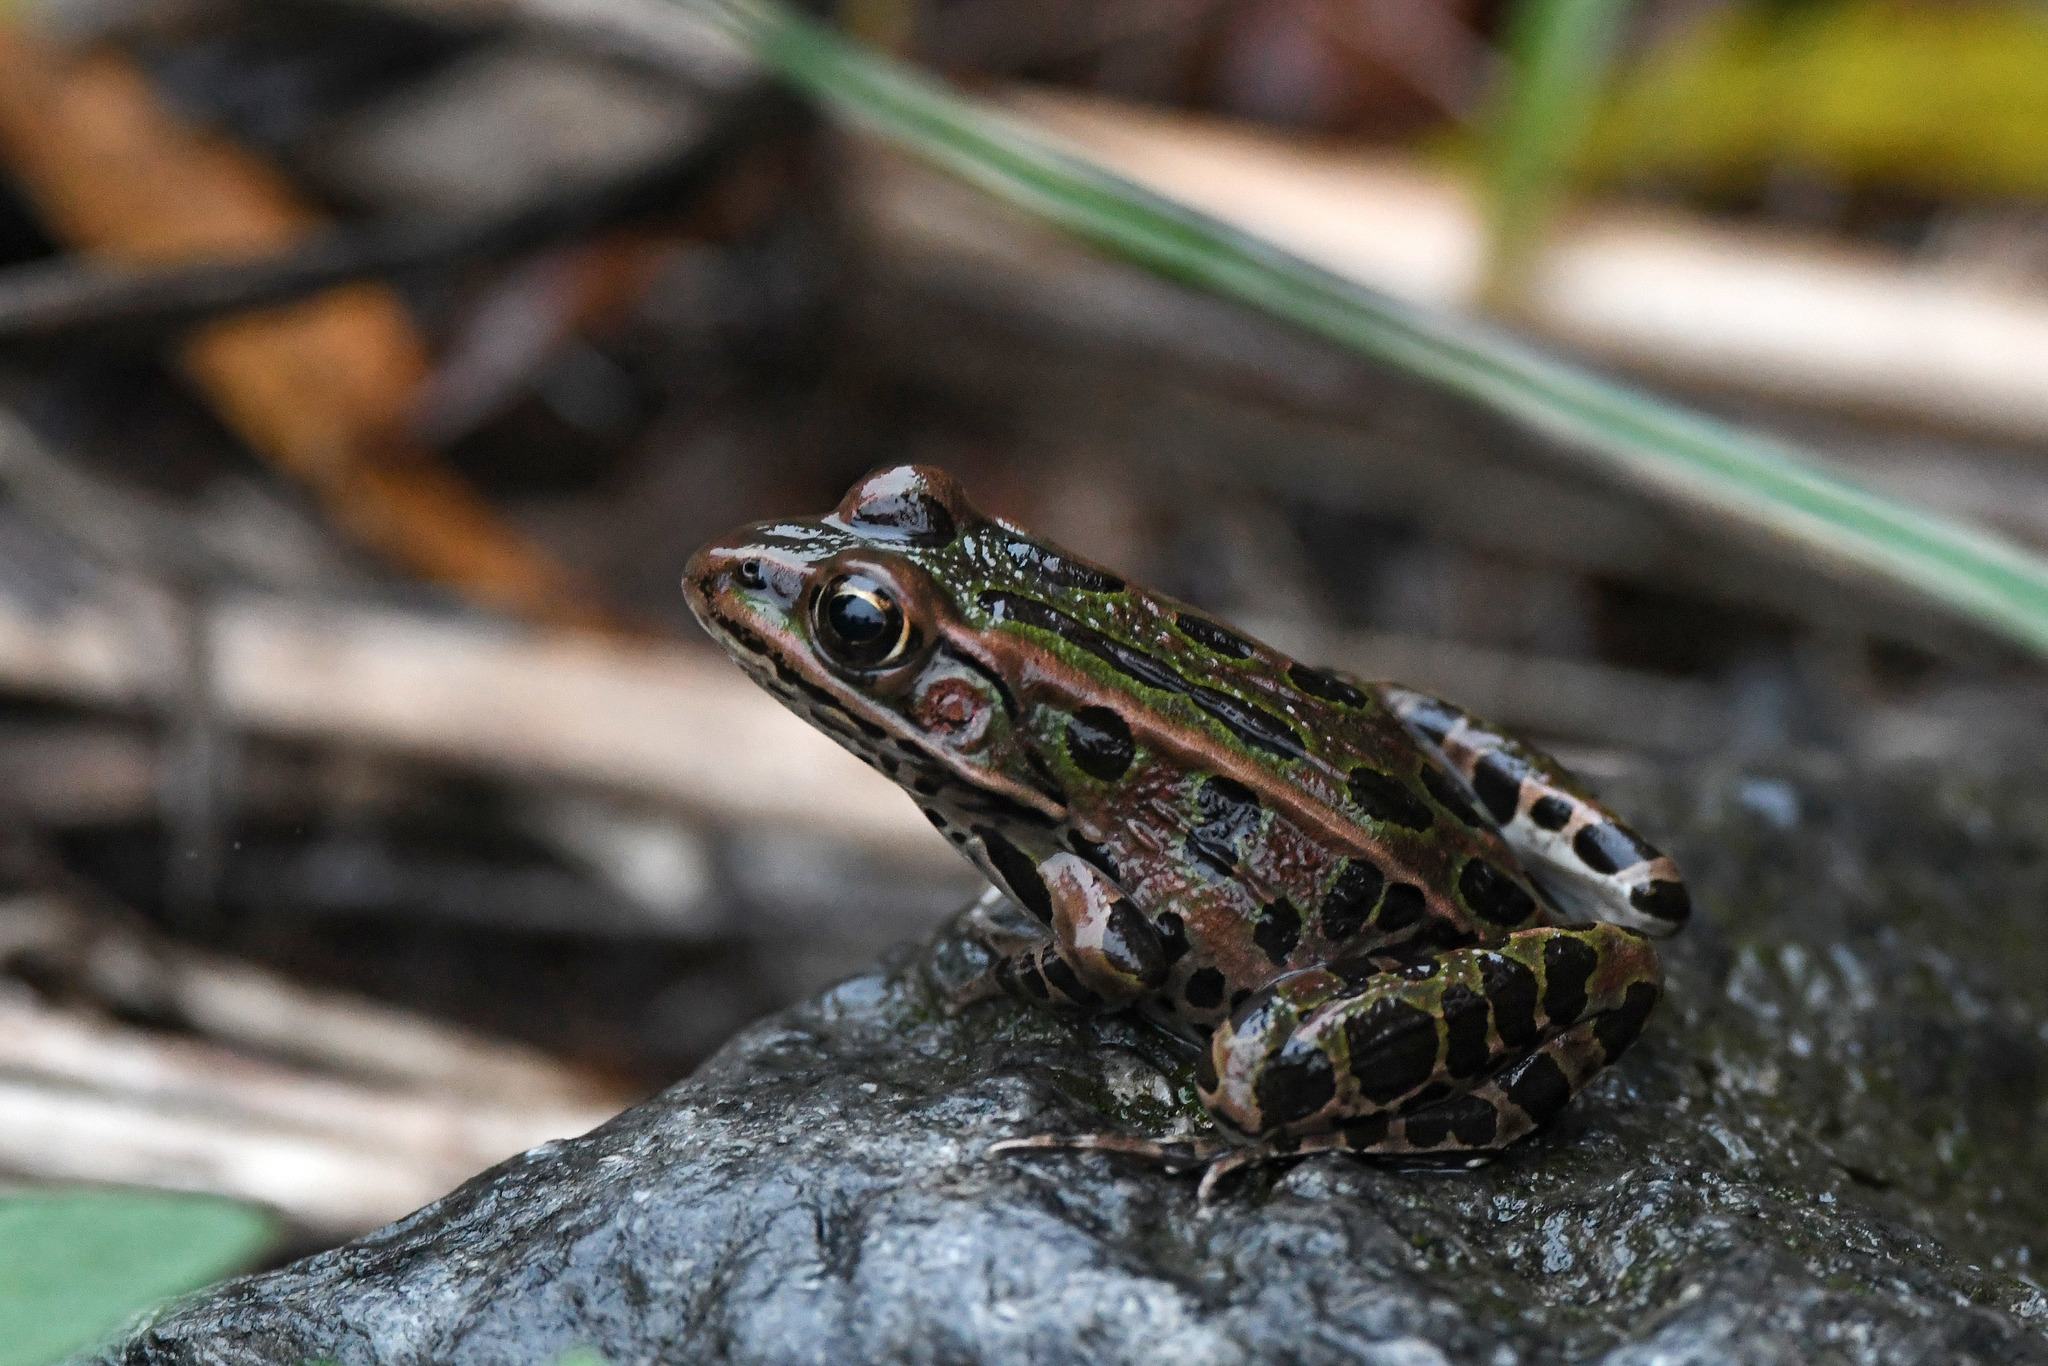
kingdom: Animalia
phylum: Chordata
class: Amphibia
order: Anura
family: Ranidae
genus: Lithobates
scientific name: Lithobates pipiens
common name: Northern leopard frog
